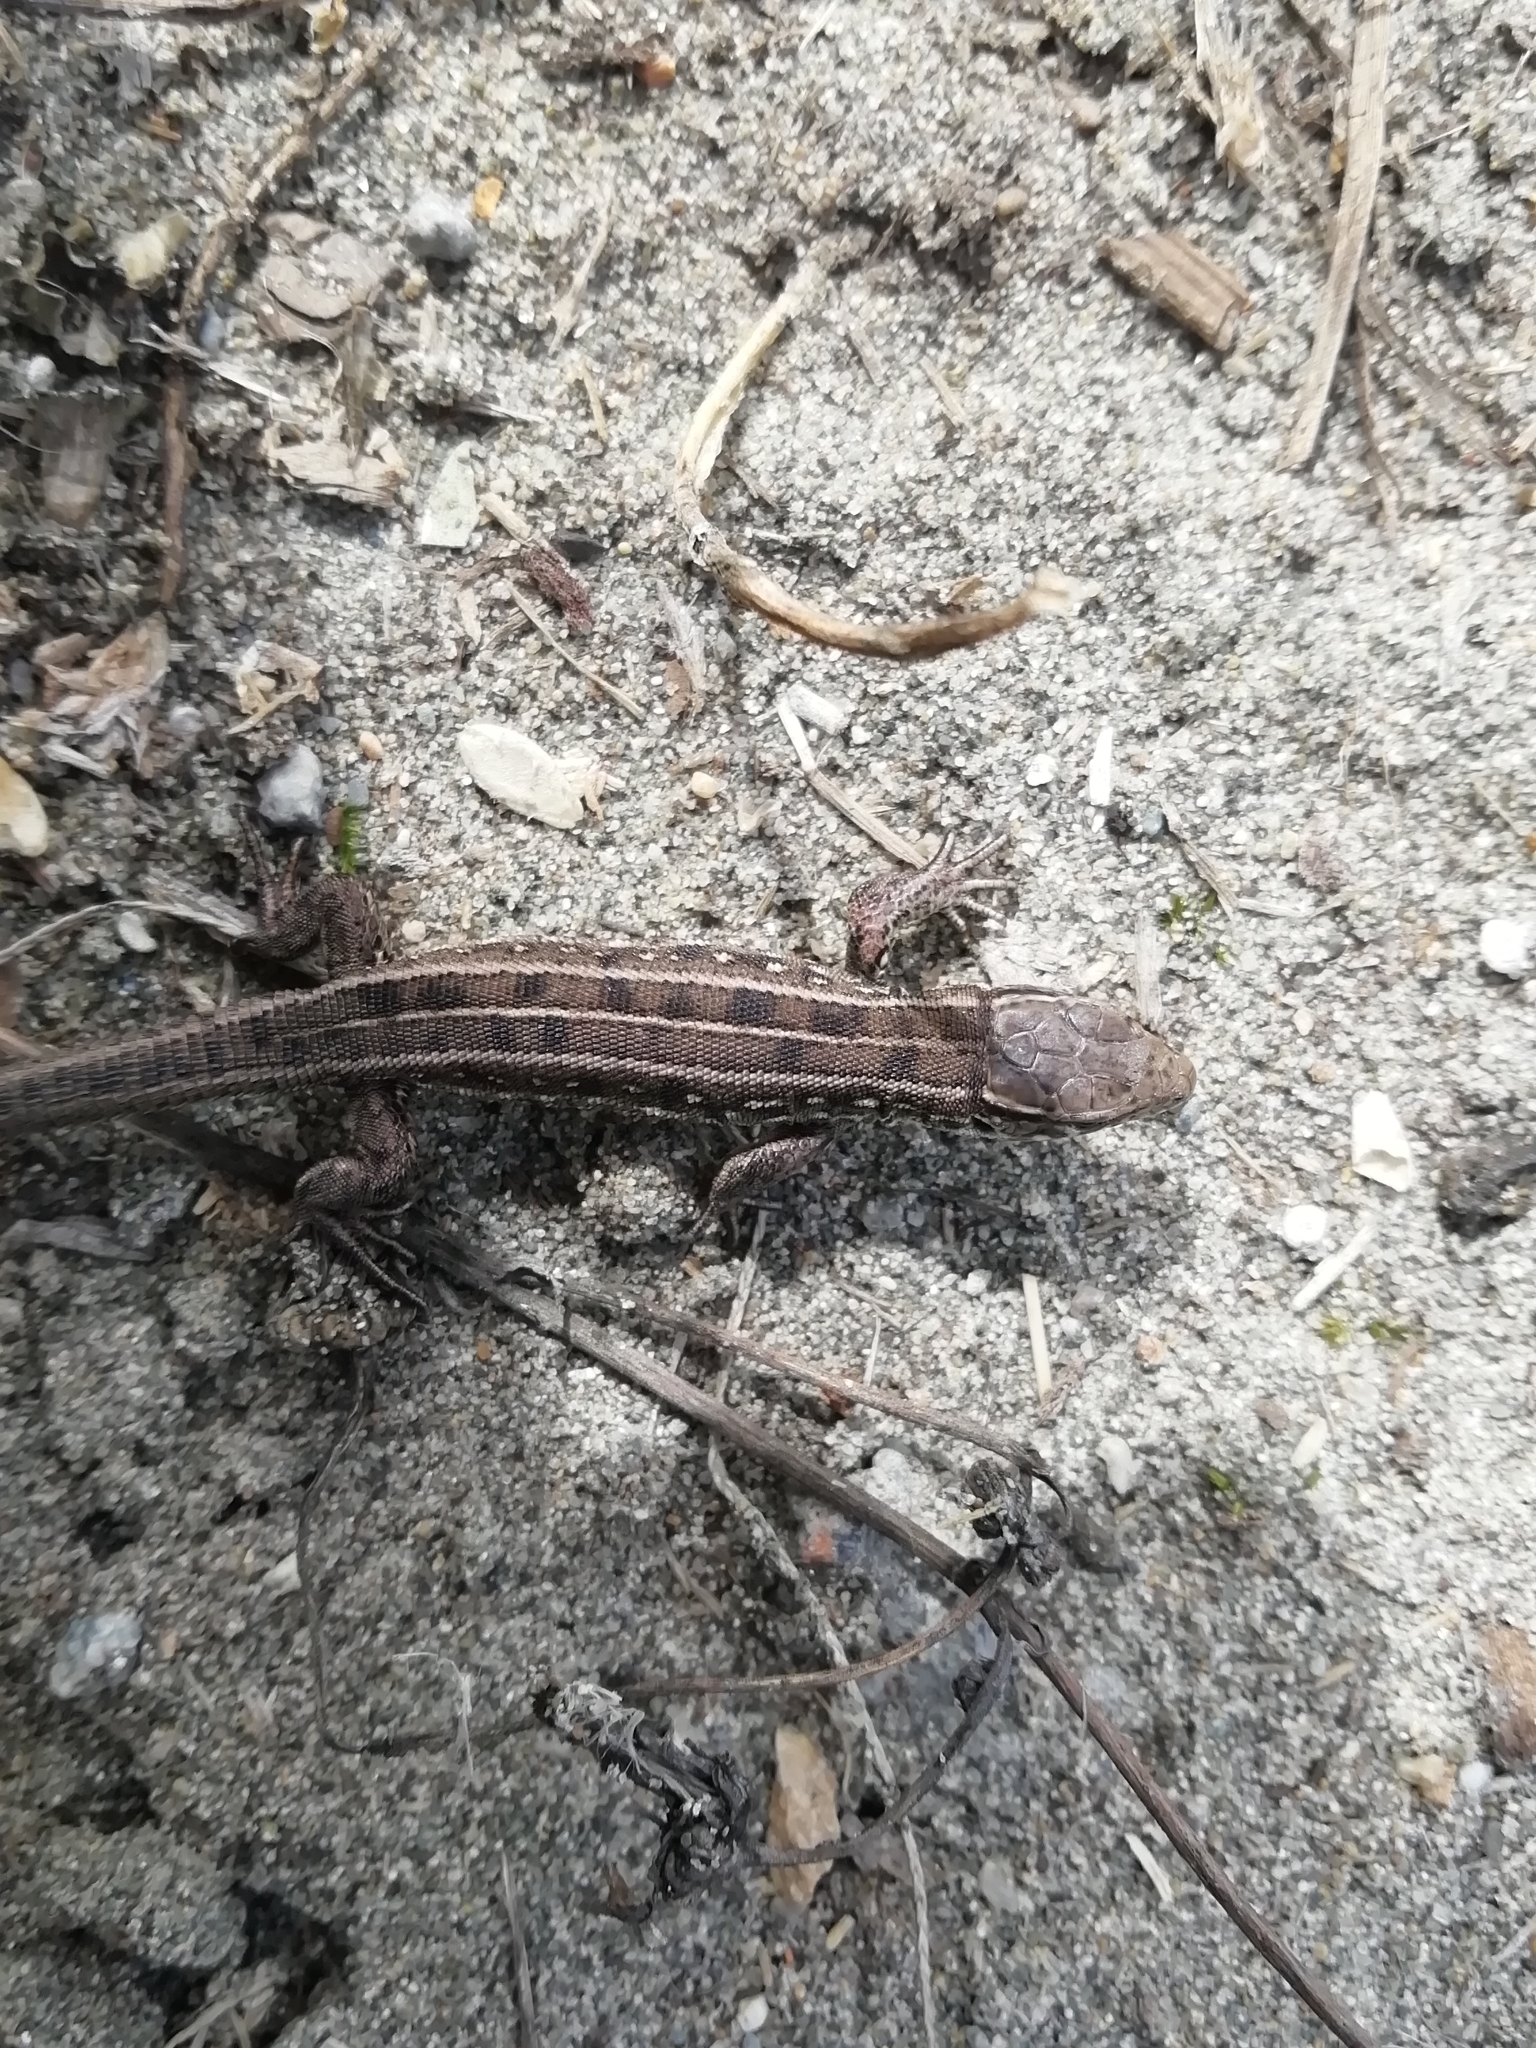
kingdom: Animalia
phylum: Chordata
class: Squamata
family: Lacertidae
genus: Lacerta
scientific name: Lacerta agilis
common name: Sand lizard
